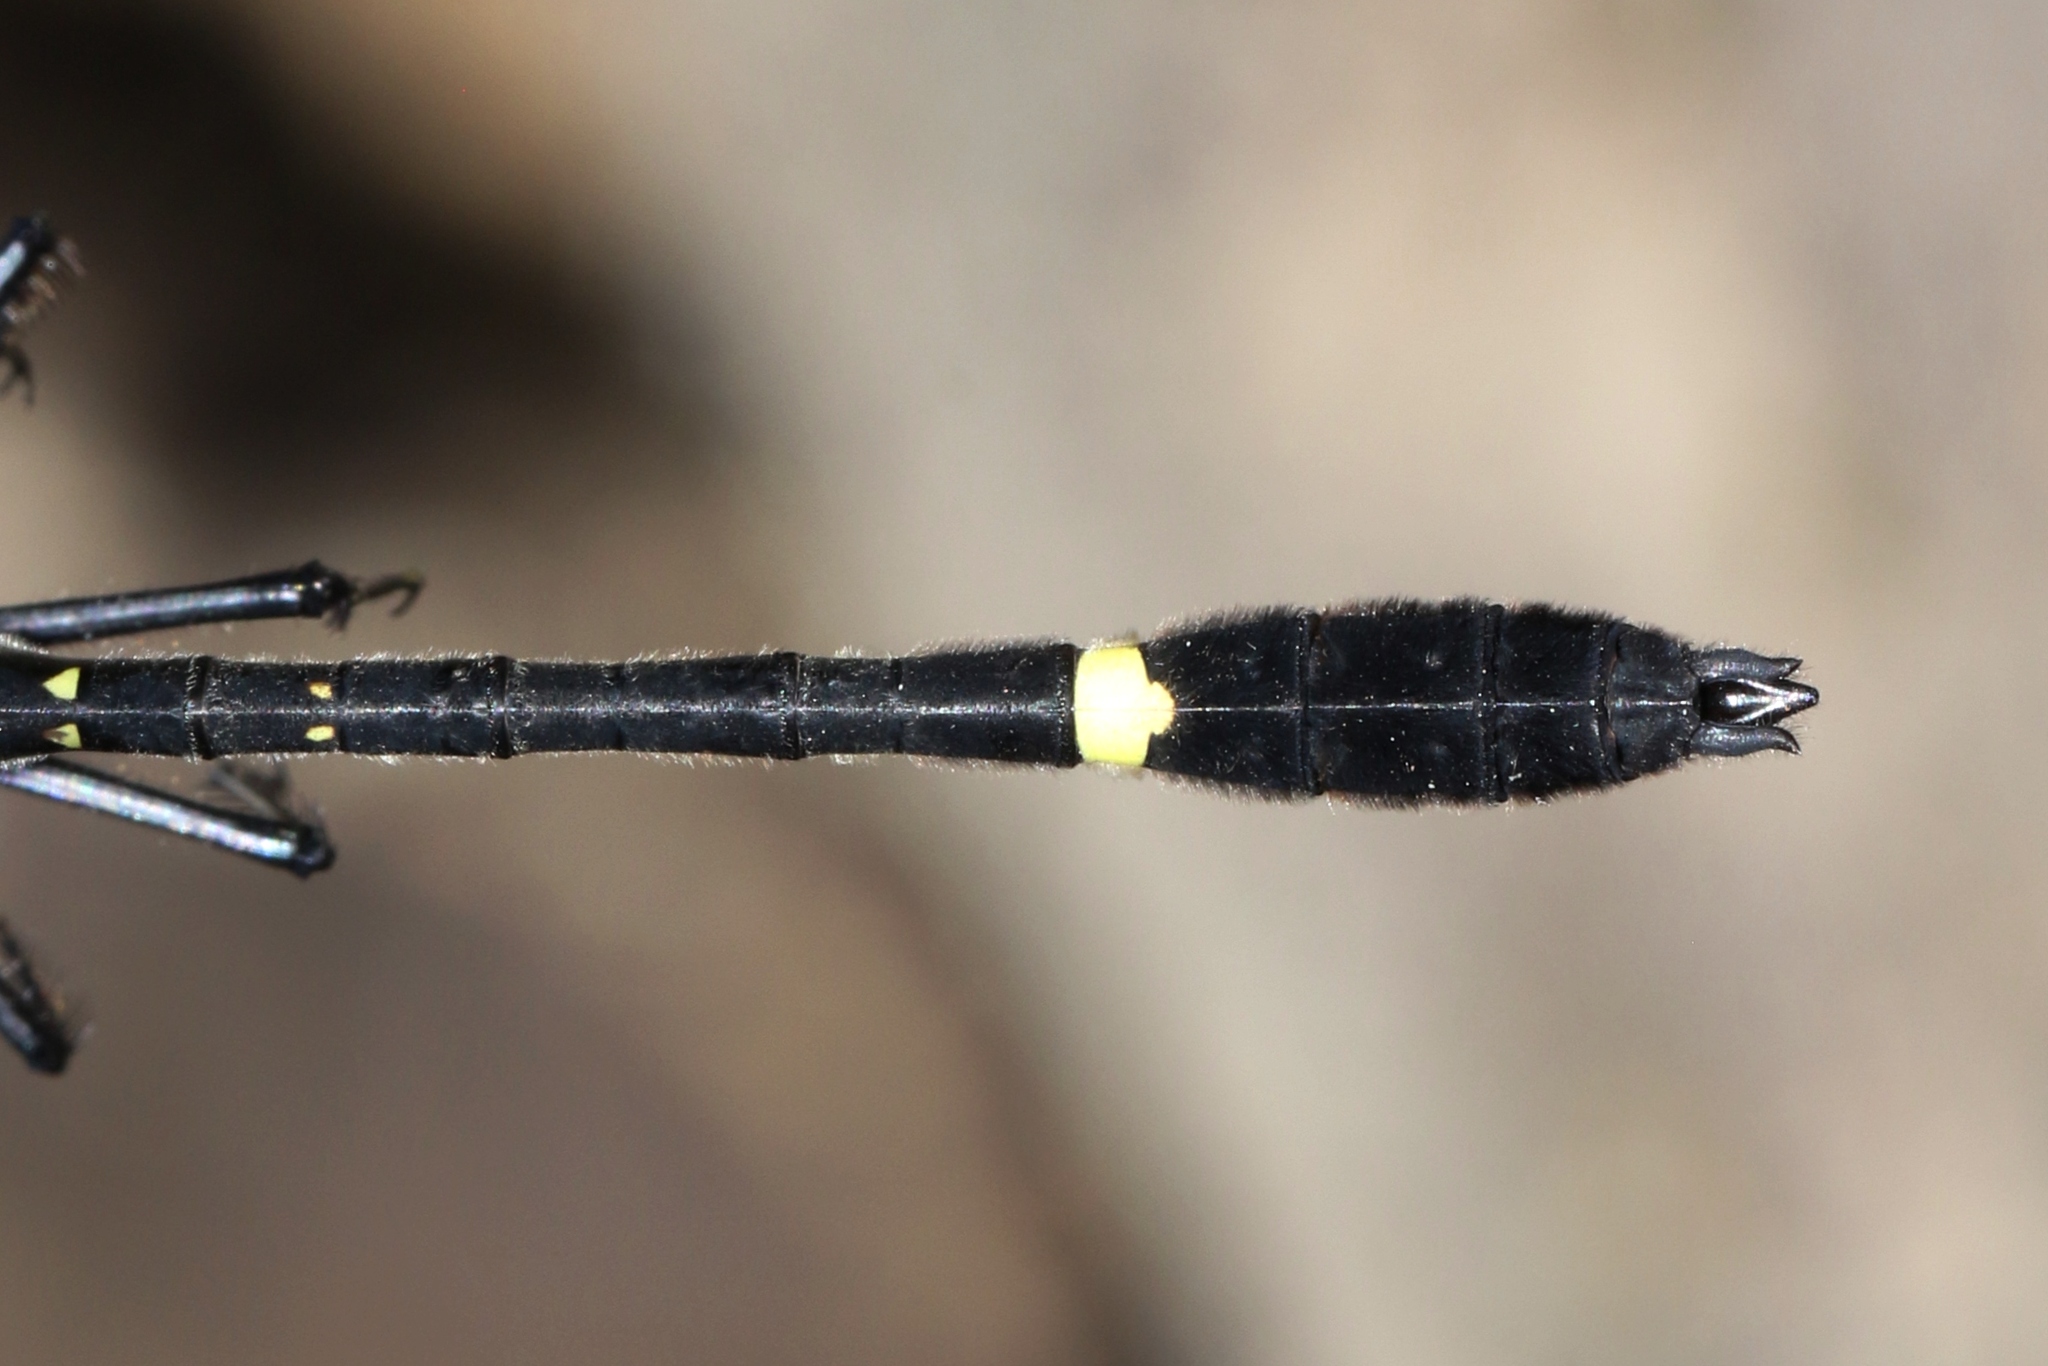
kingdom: Animalia
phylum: Arthropoda
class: Insecta
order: Odonata
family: Macromiidae
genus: Macromia
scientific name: Macromia illinoiensis
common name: Swift river cruiser
